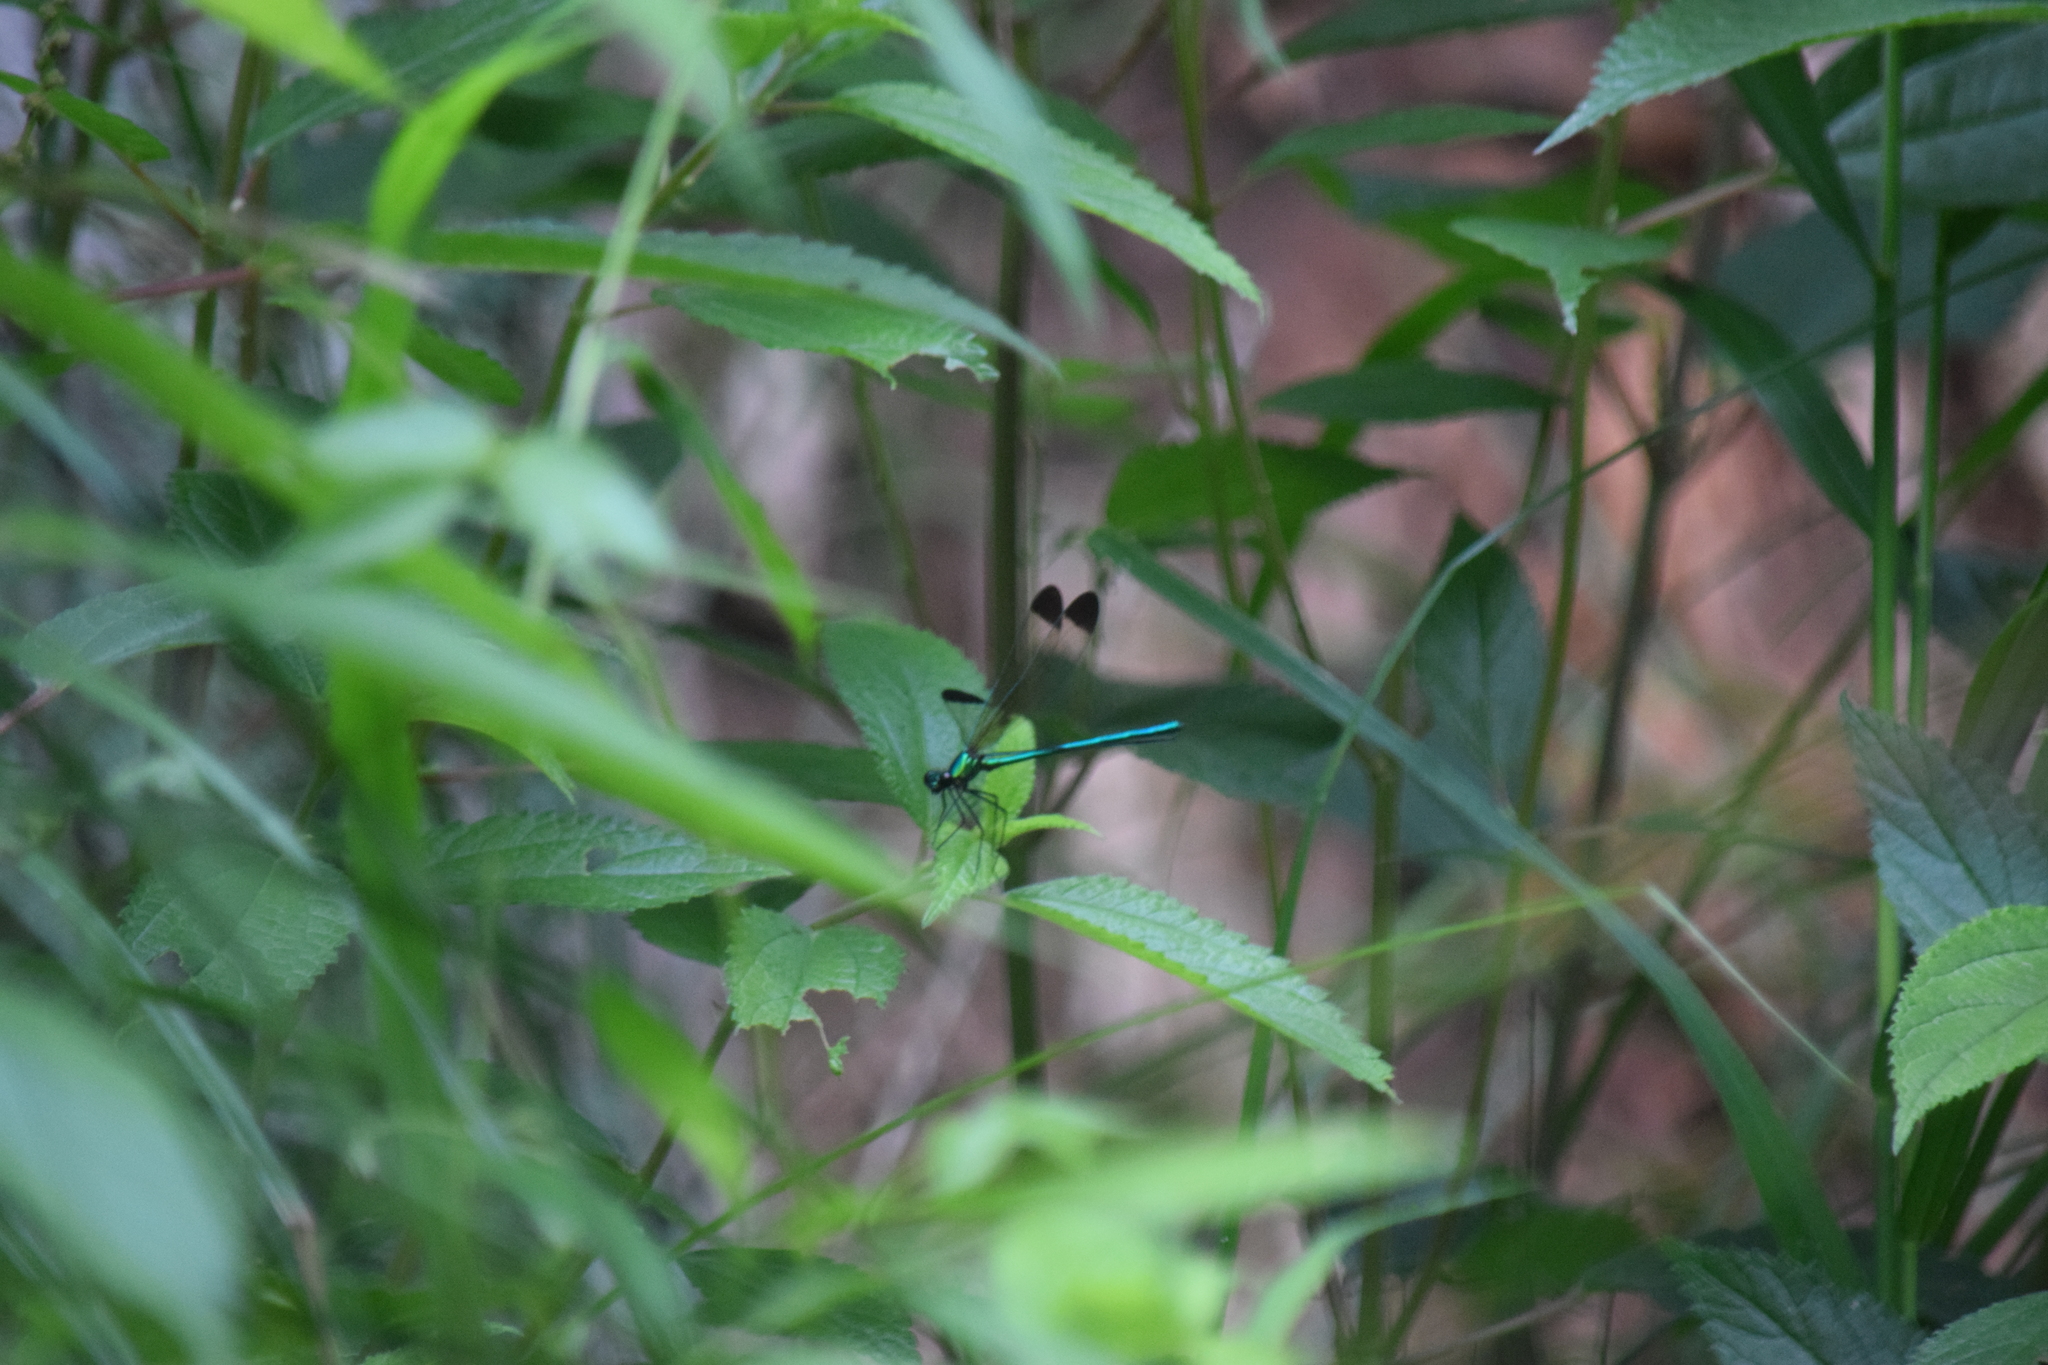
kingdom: Animalia
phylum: Arthropoda
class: Insecta
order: Odonata
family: Calopterygidae
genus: Calopteryx
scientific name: Calopteryx dimidiata
